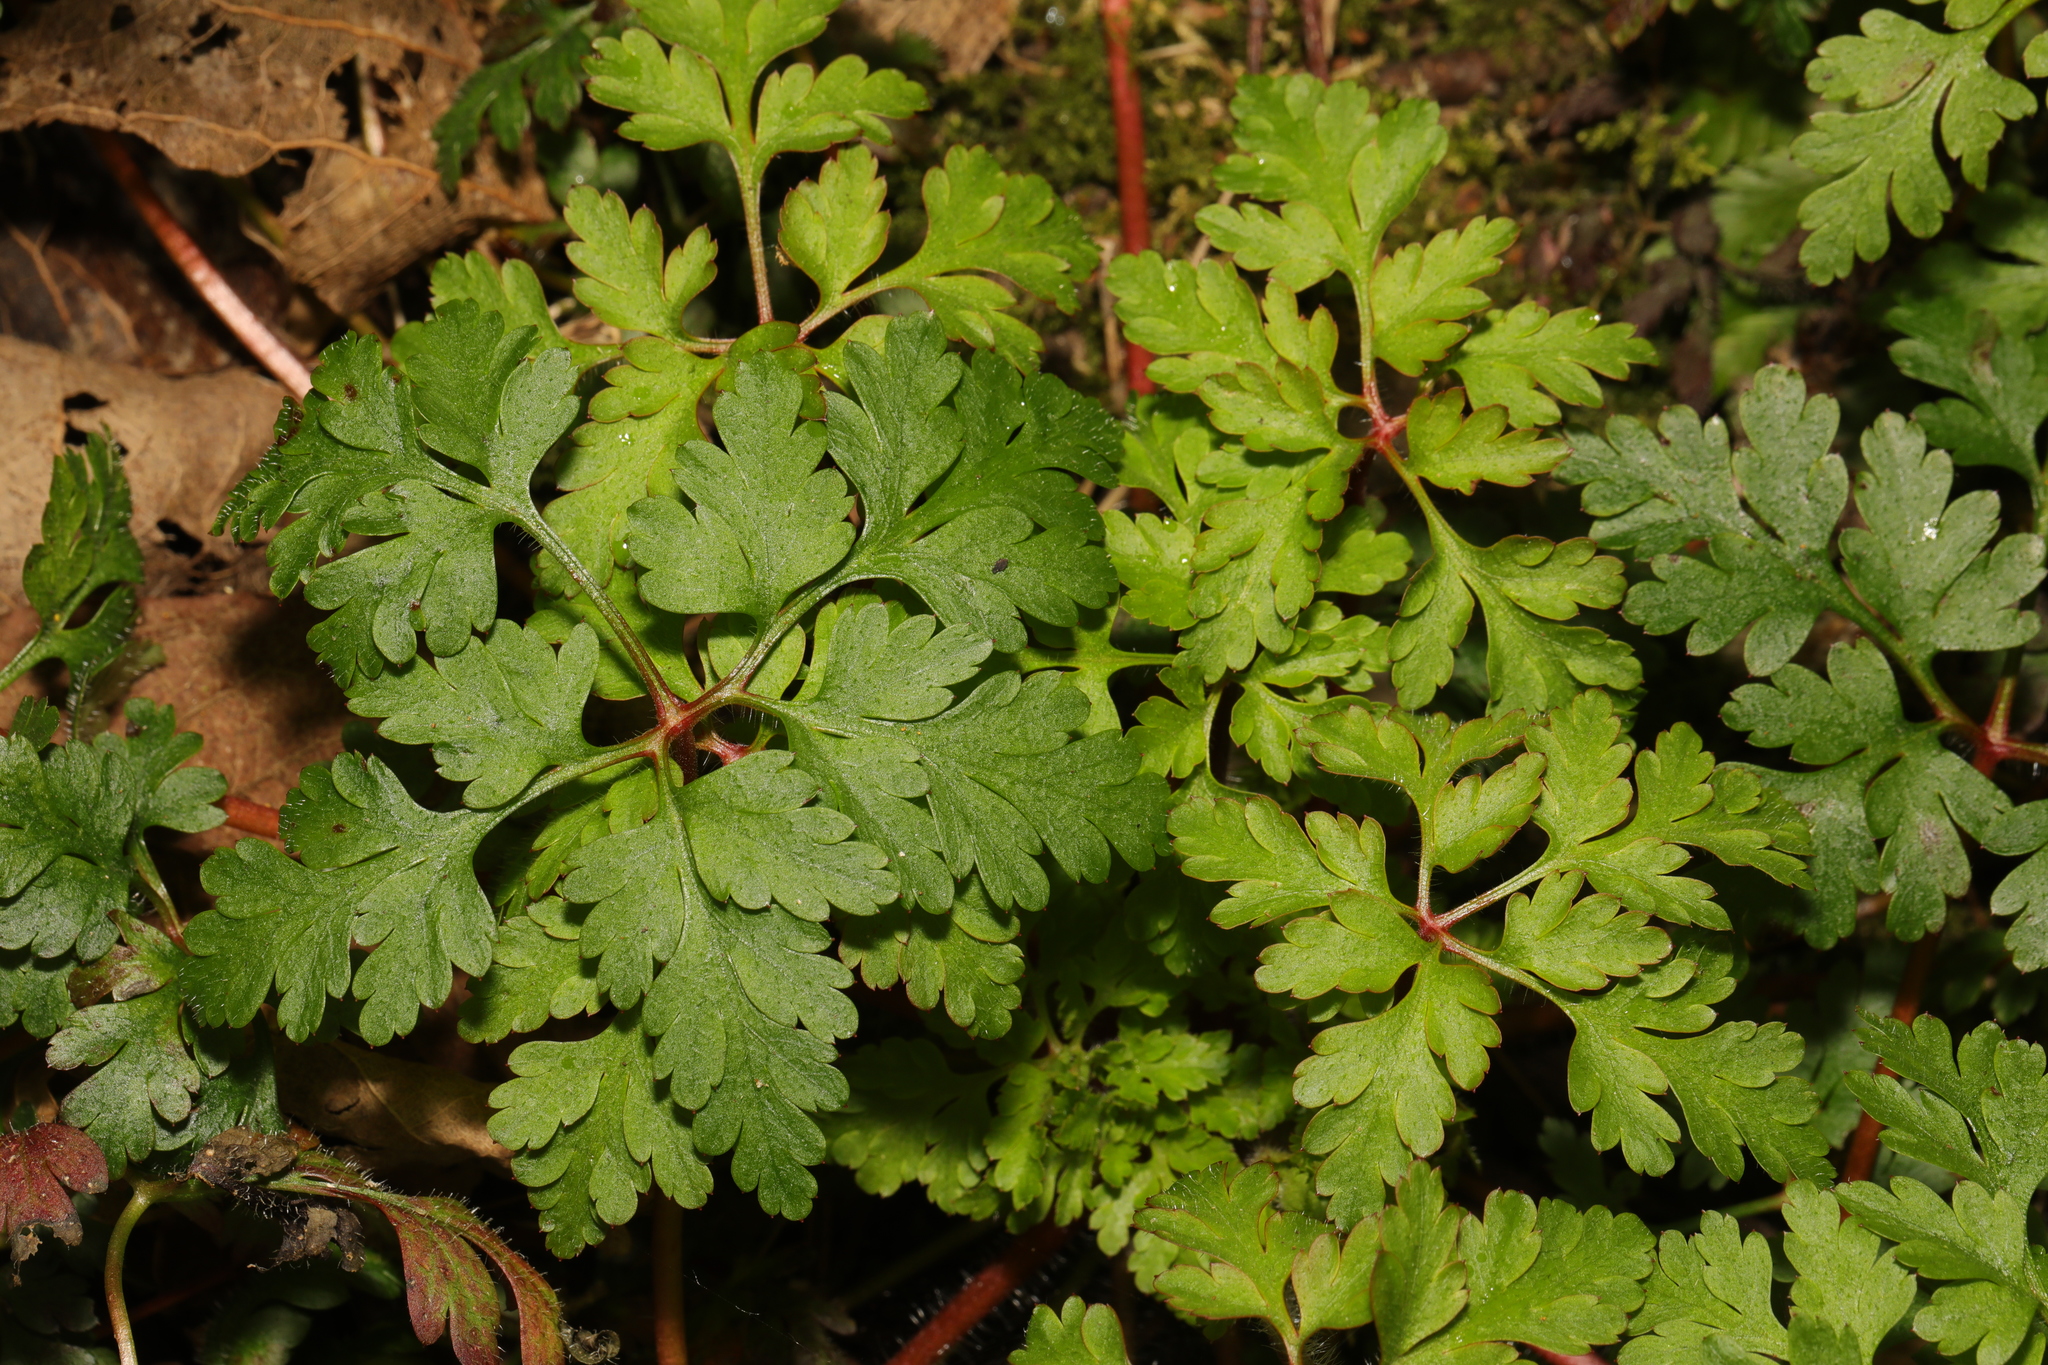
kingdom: Plantae
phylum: Tracheophyta
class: Magnoliopsida
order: Geraniales
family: Geraniaceae
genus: Geranium
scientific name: Geranium robertianum
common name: Herb-robert
